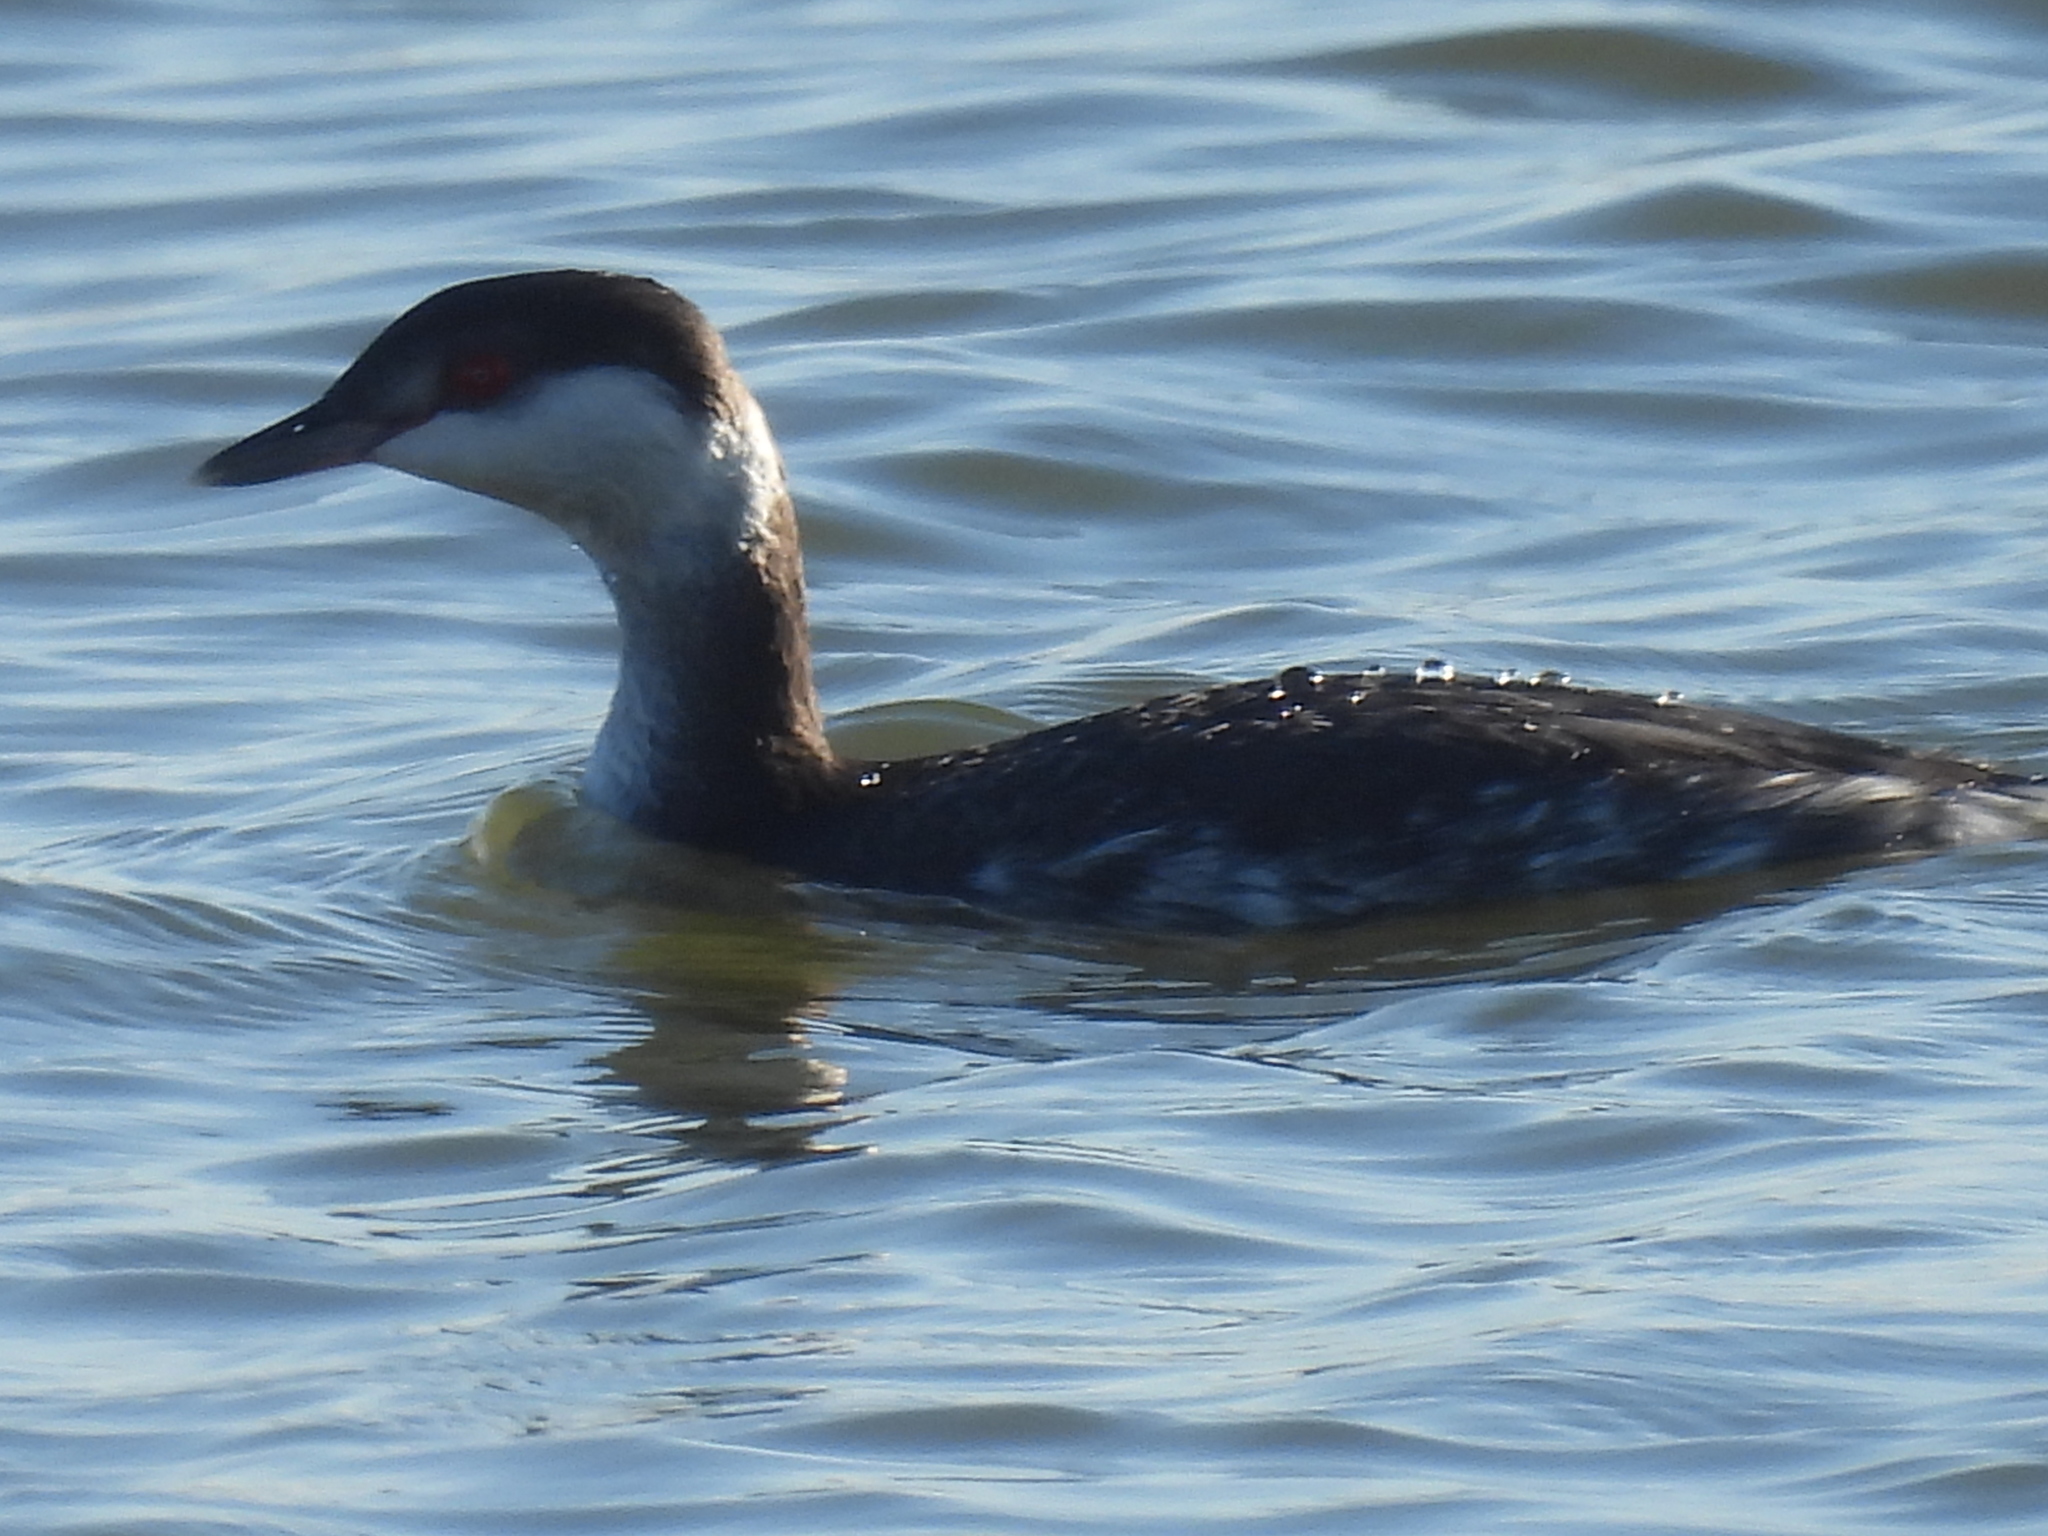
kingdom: Animalia
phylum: Chordata
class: Aves
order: Podicipediformes
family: Podicipedidae
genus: Podiceps
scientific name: Podiceps auritus
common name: Horned grebe
